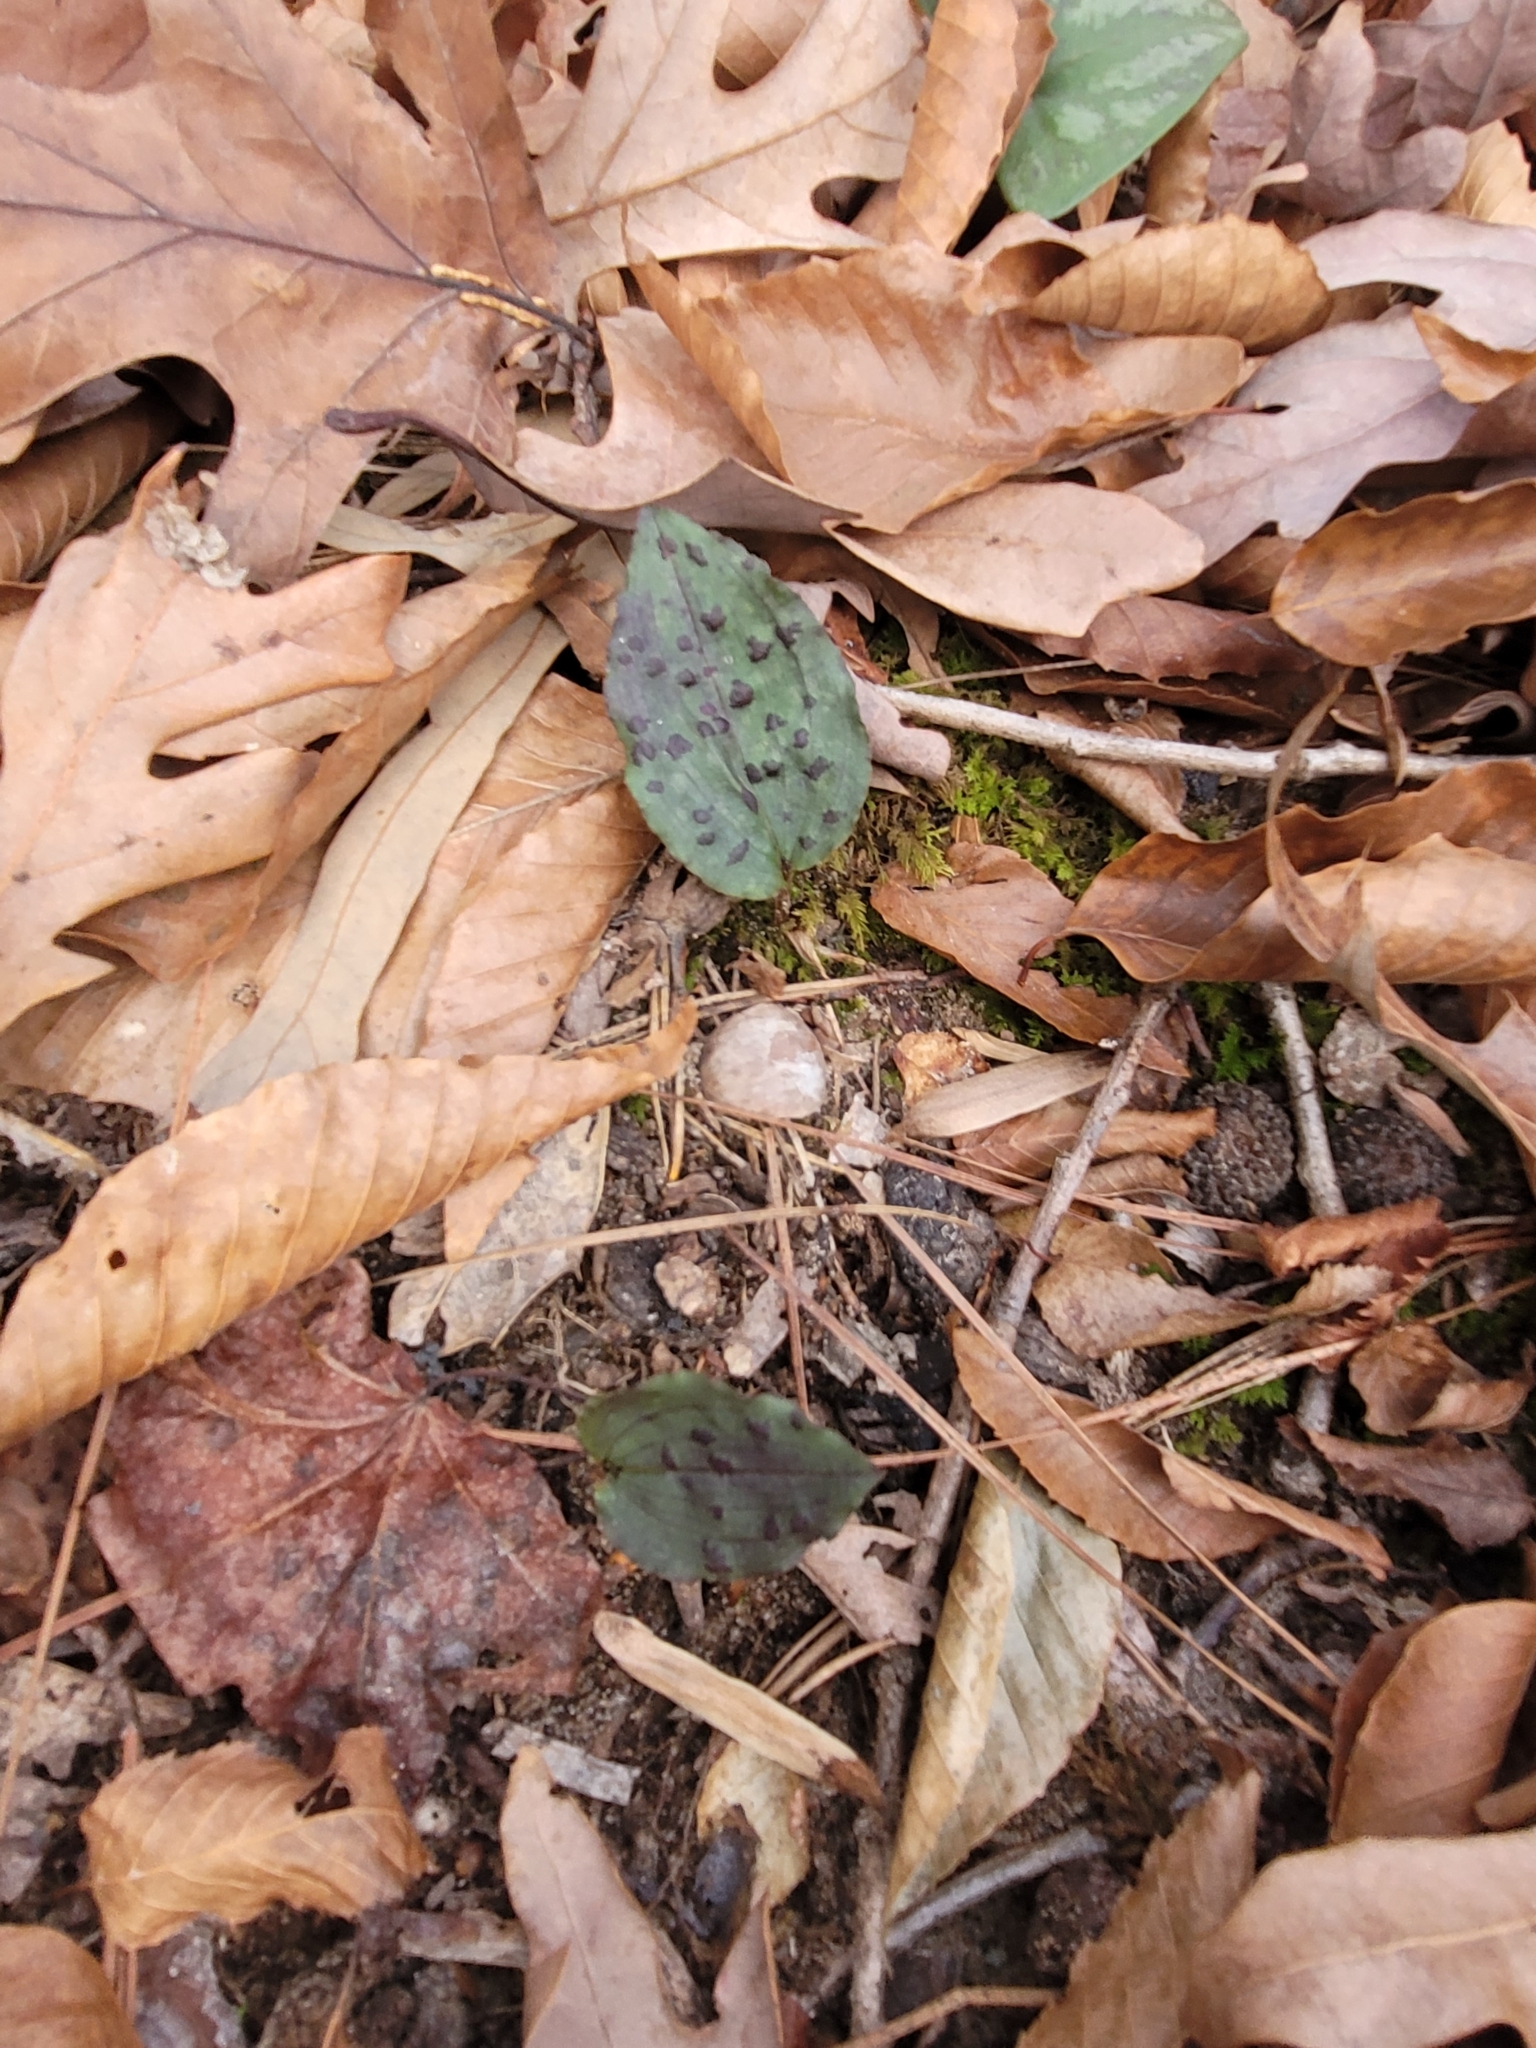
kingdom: Plantae
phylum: Tracheophyta
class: Liliopsida
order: Asparagales
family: Orchidaceae
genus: Tipularia
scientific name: Tipularia discolor
